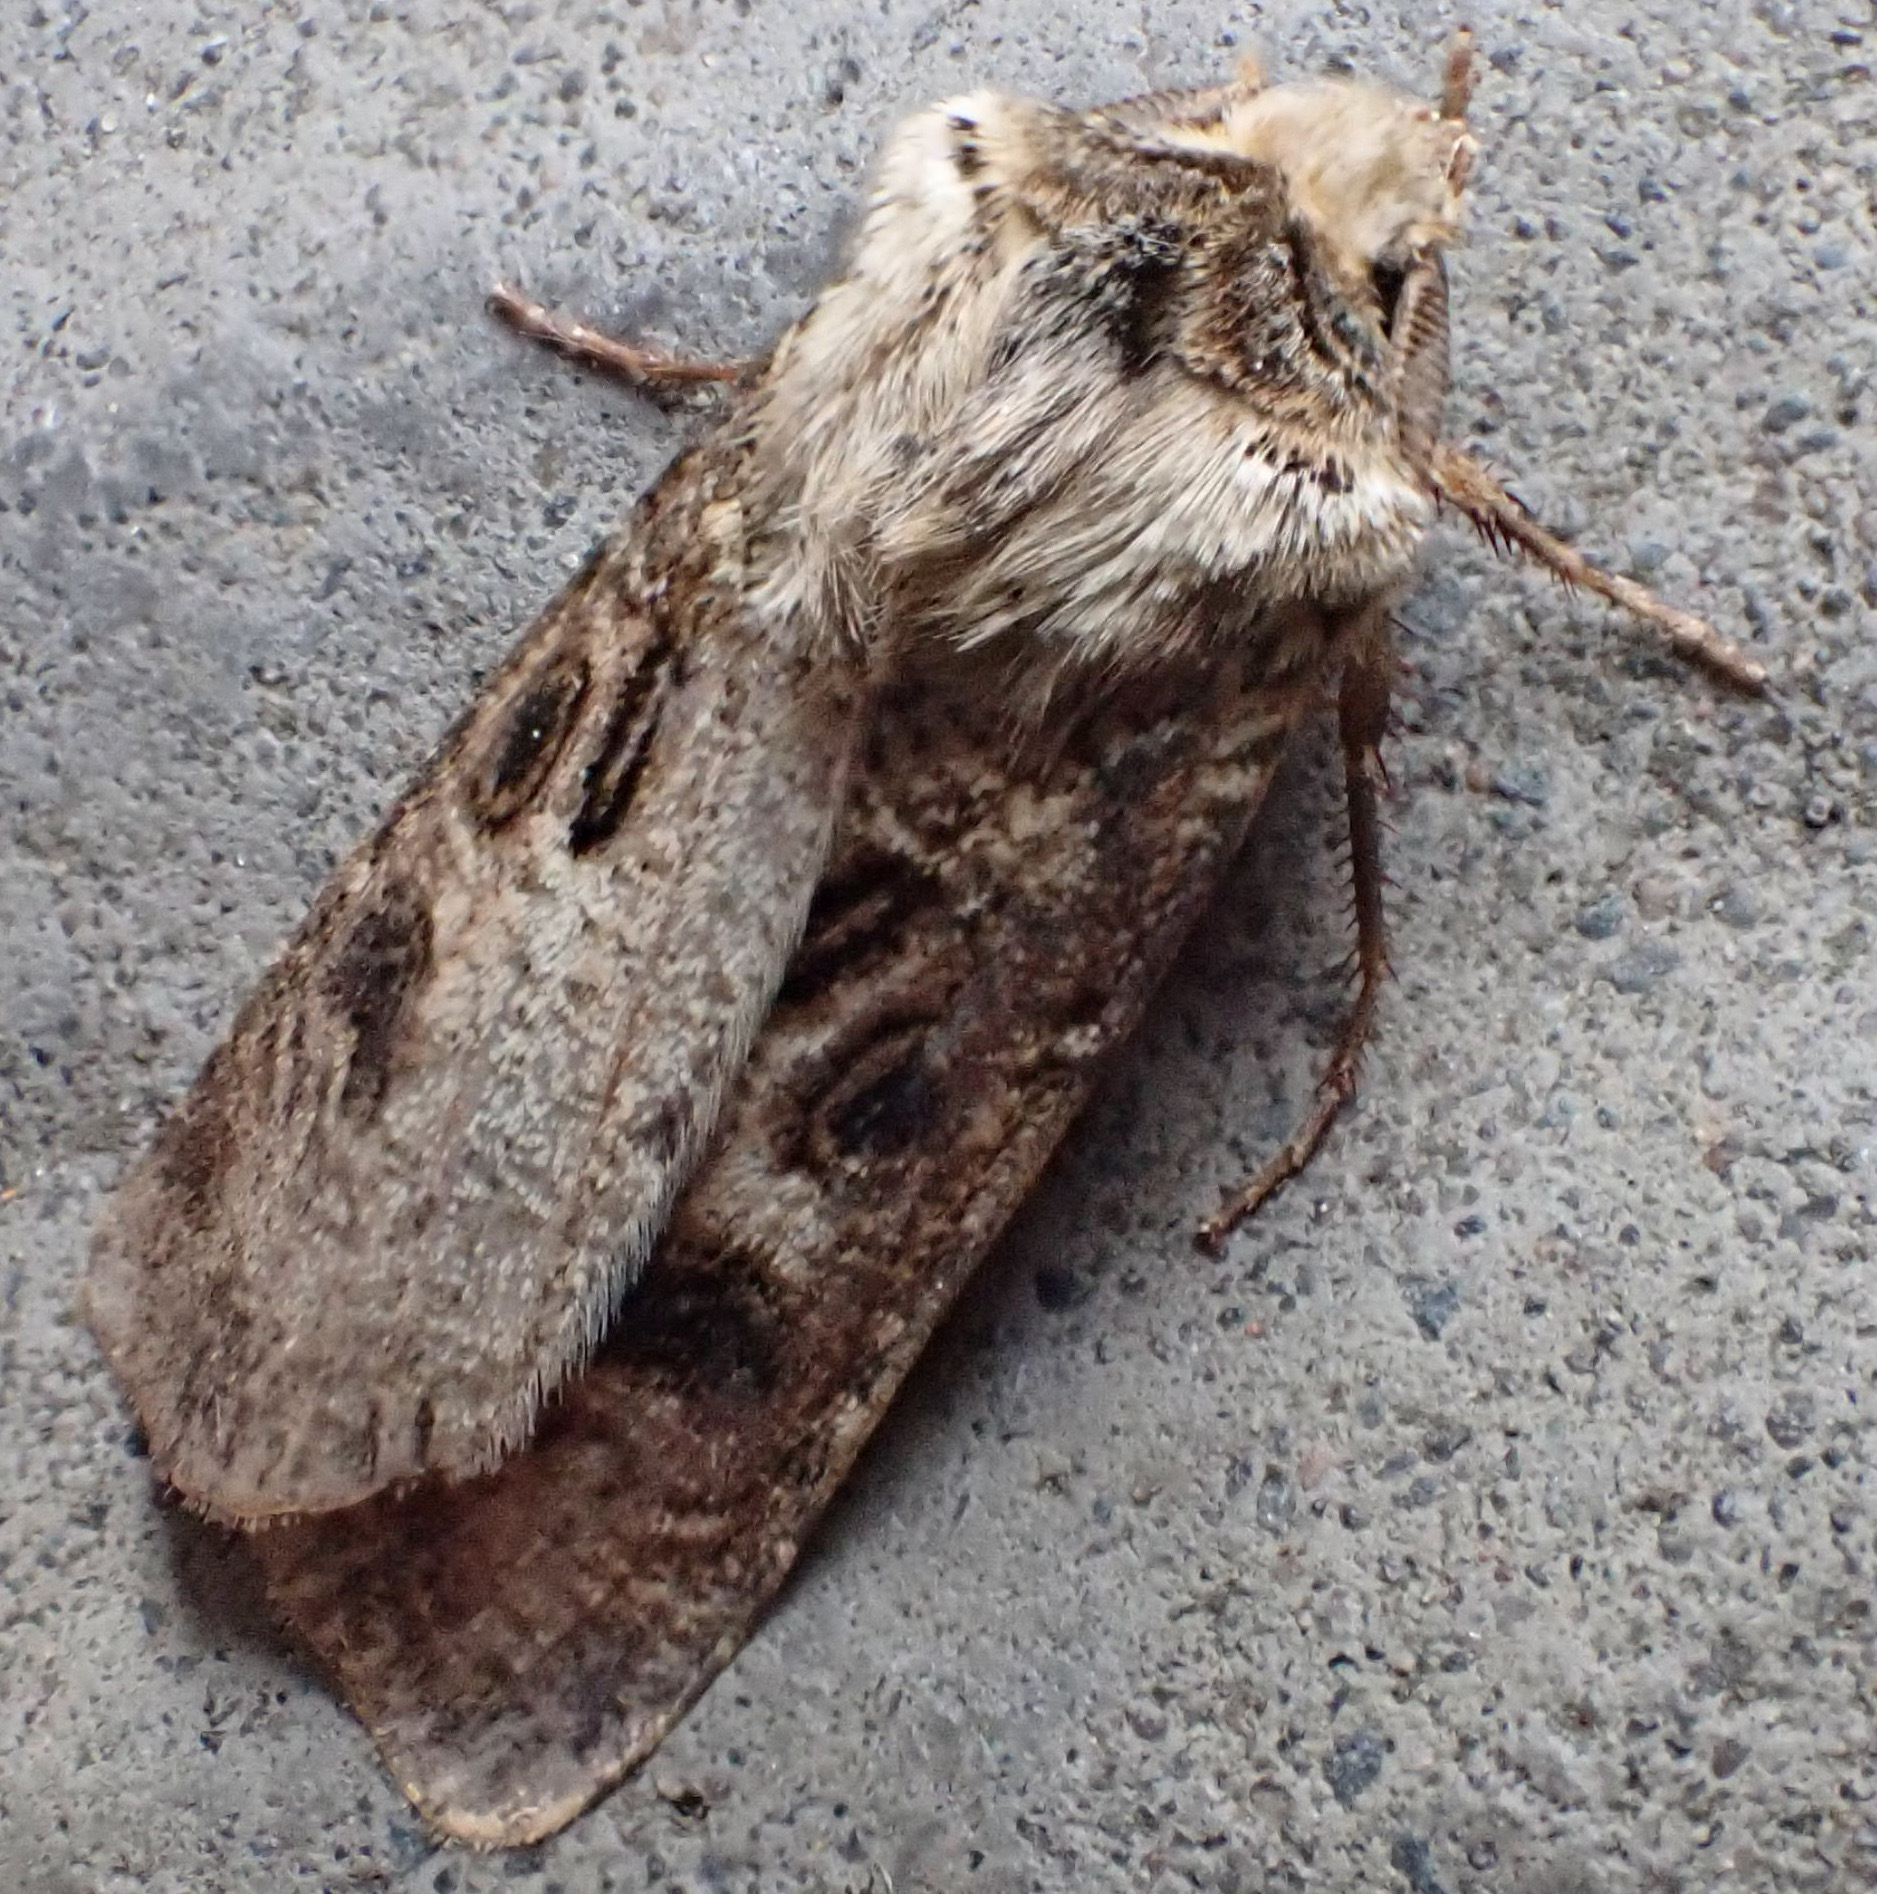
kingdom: Animalia
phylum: Arthropoda
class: Insecta
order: Lepidoptera
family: Noctuidae
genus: Agrotis
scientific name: Agrotis clavis
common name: Heart and club
